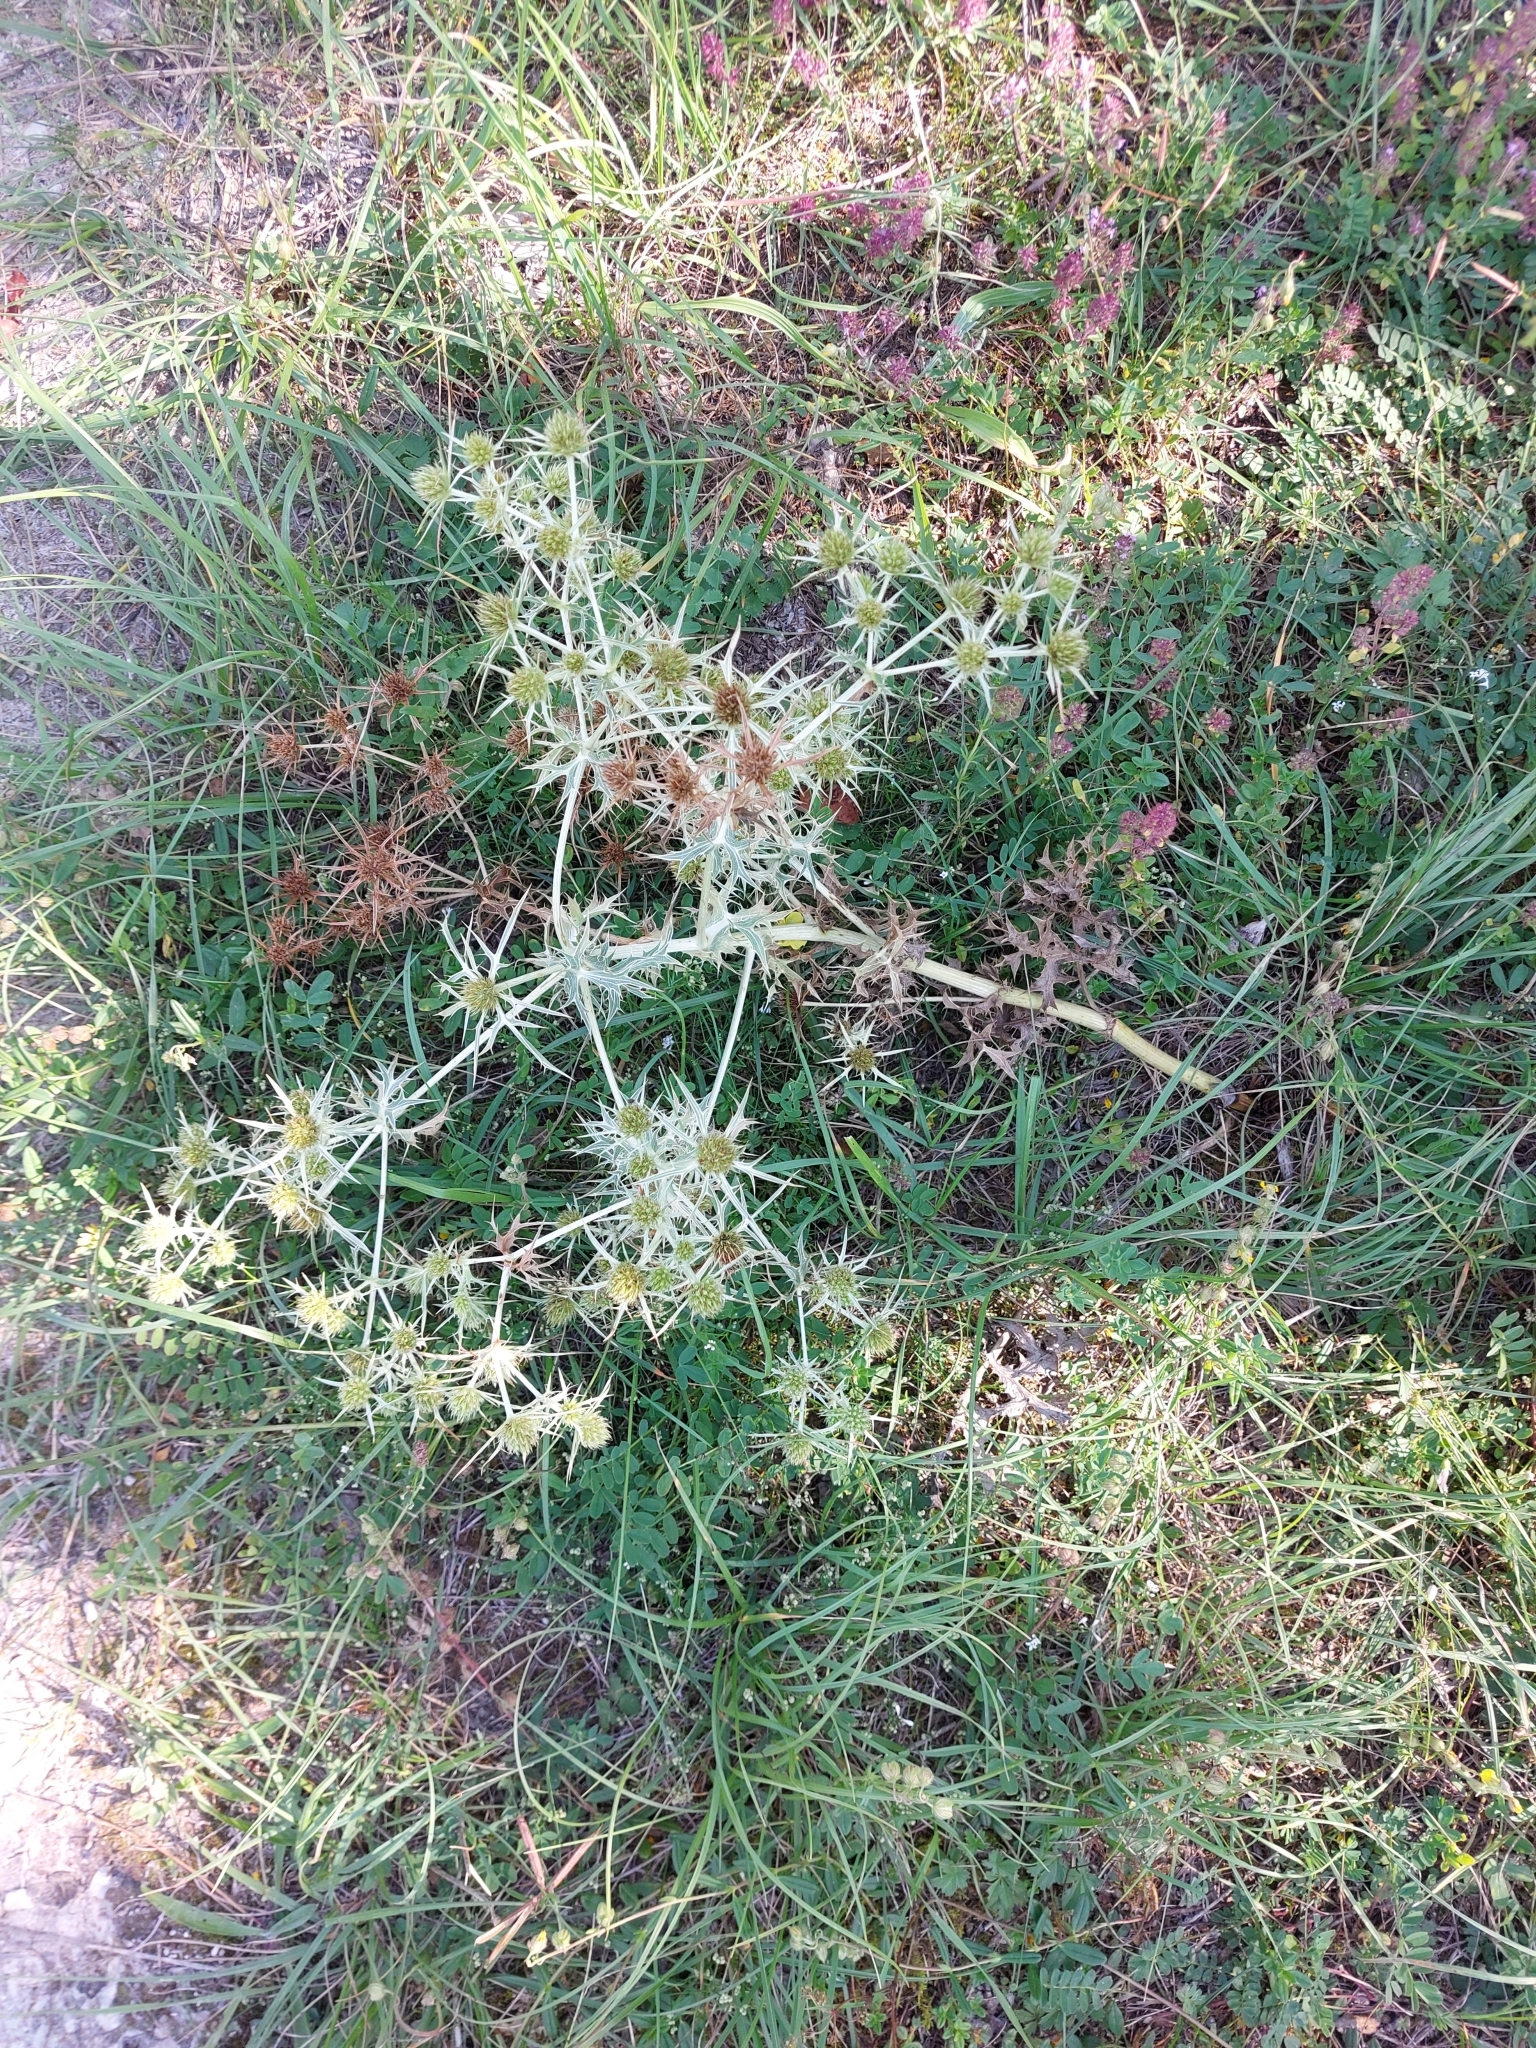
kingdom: Plantae
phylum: Tracheophyta
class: Magnoliopsida
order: Apiales
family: Apiaceae
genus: Eryngium
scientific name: Eryngium campestre
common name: Field eryngo
